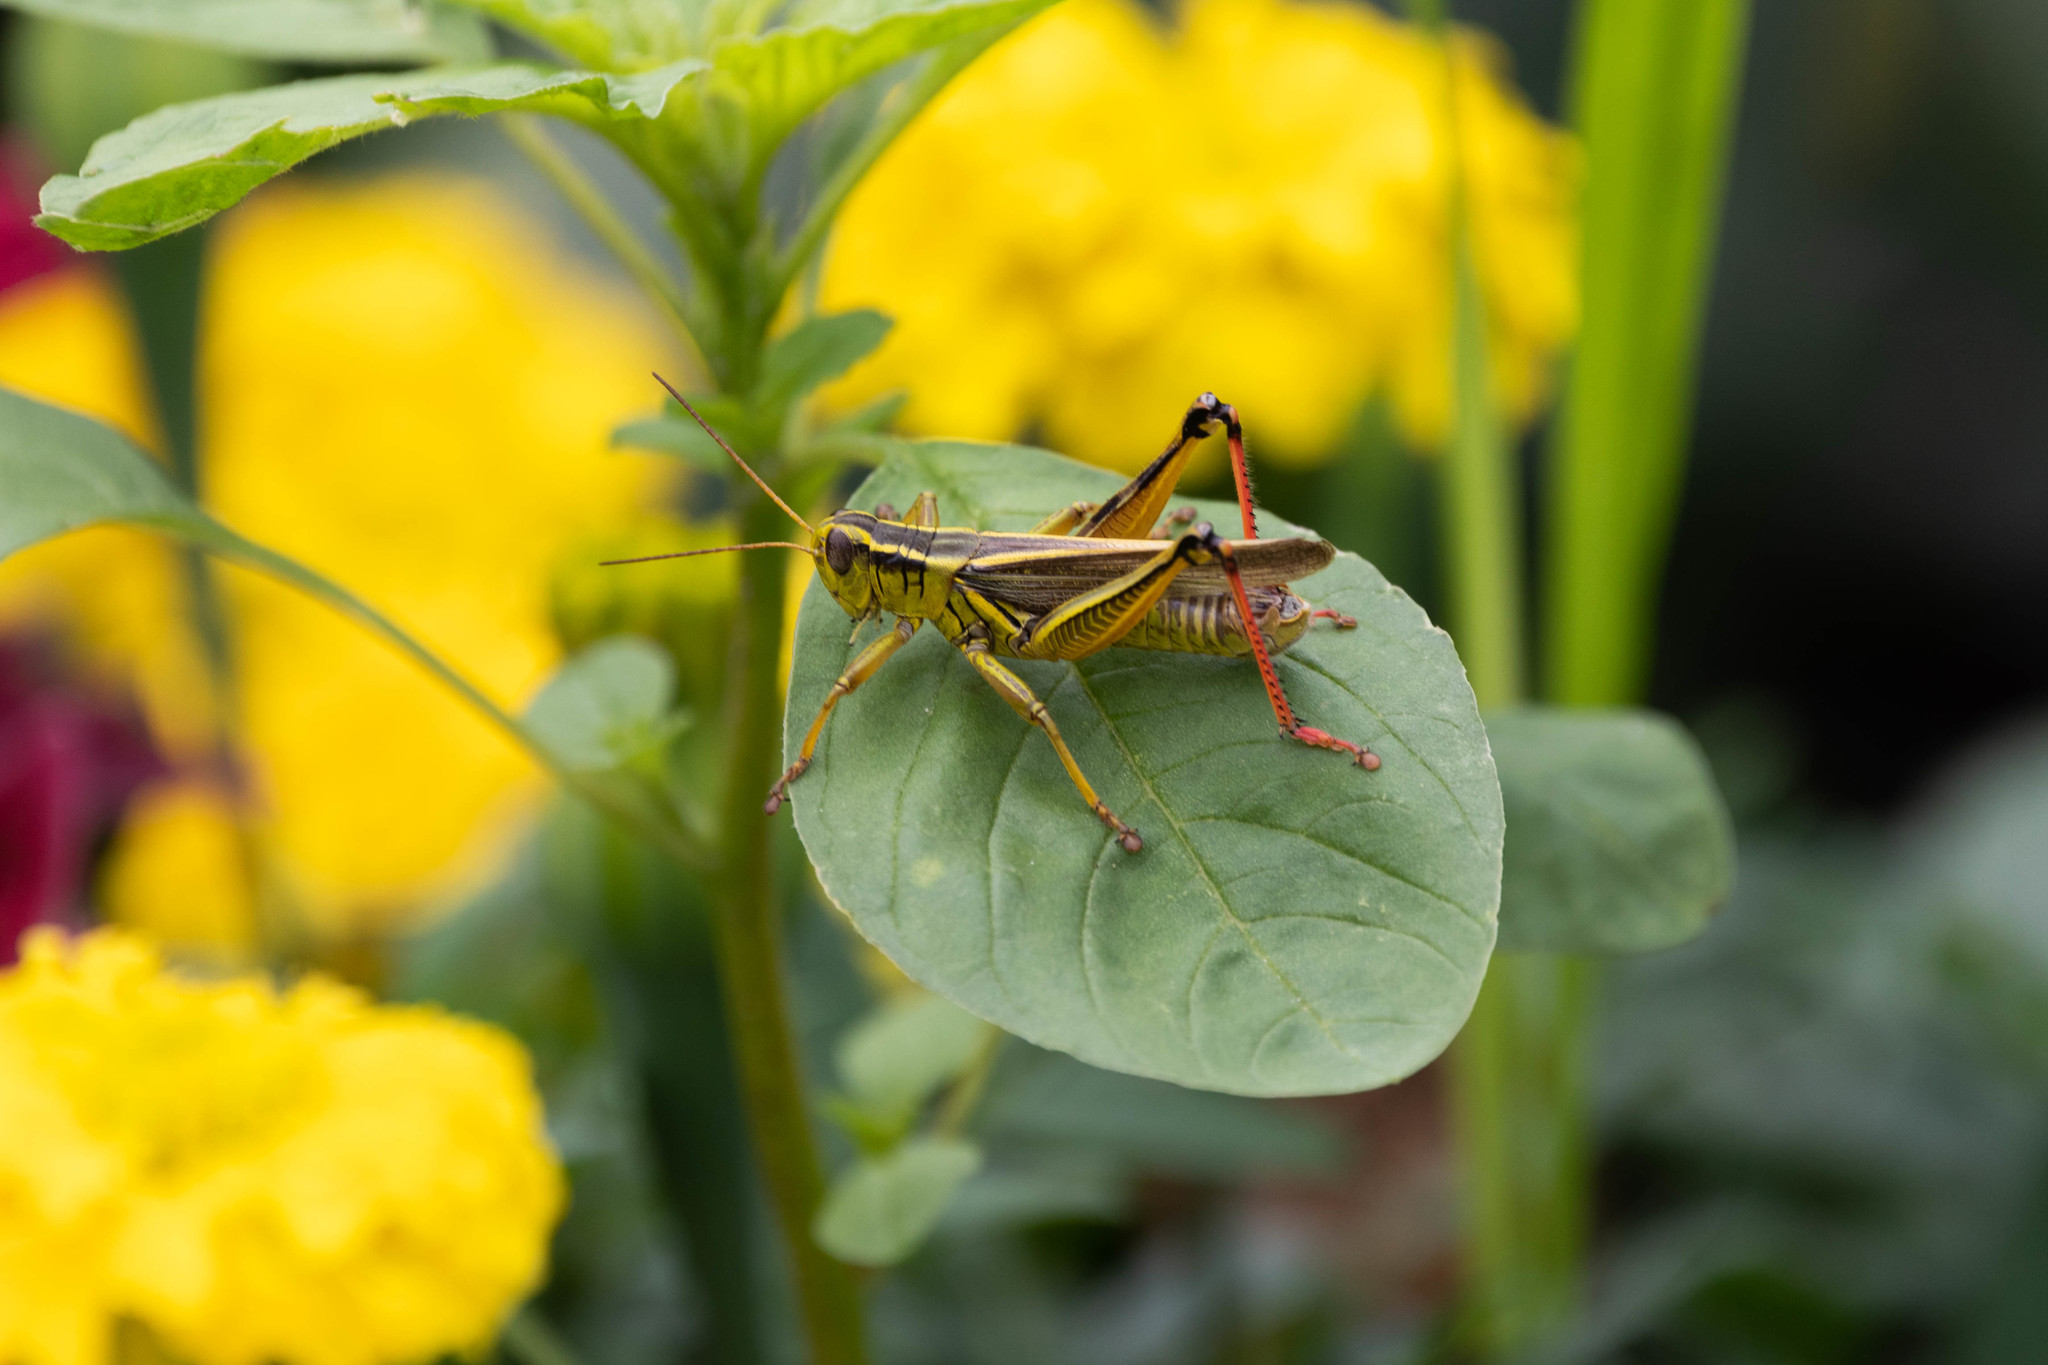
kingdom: Animalia
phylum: Arthropoda
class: Insecta
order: Orthoptera
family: Acrididae
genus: Melanoplus
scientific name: Melanoplus bivittatus
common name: Two-striped grasshopper
